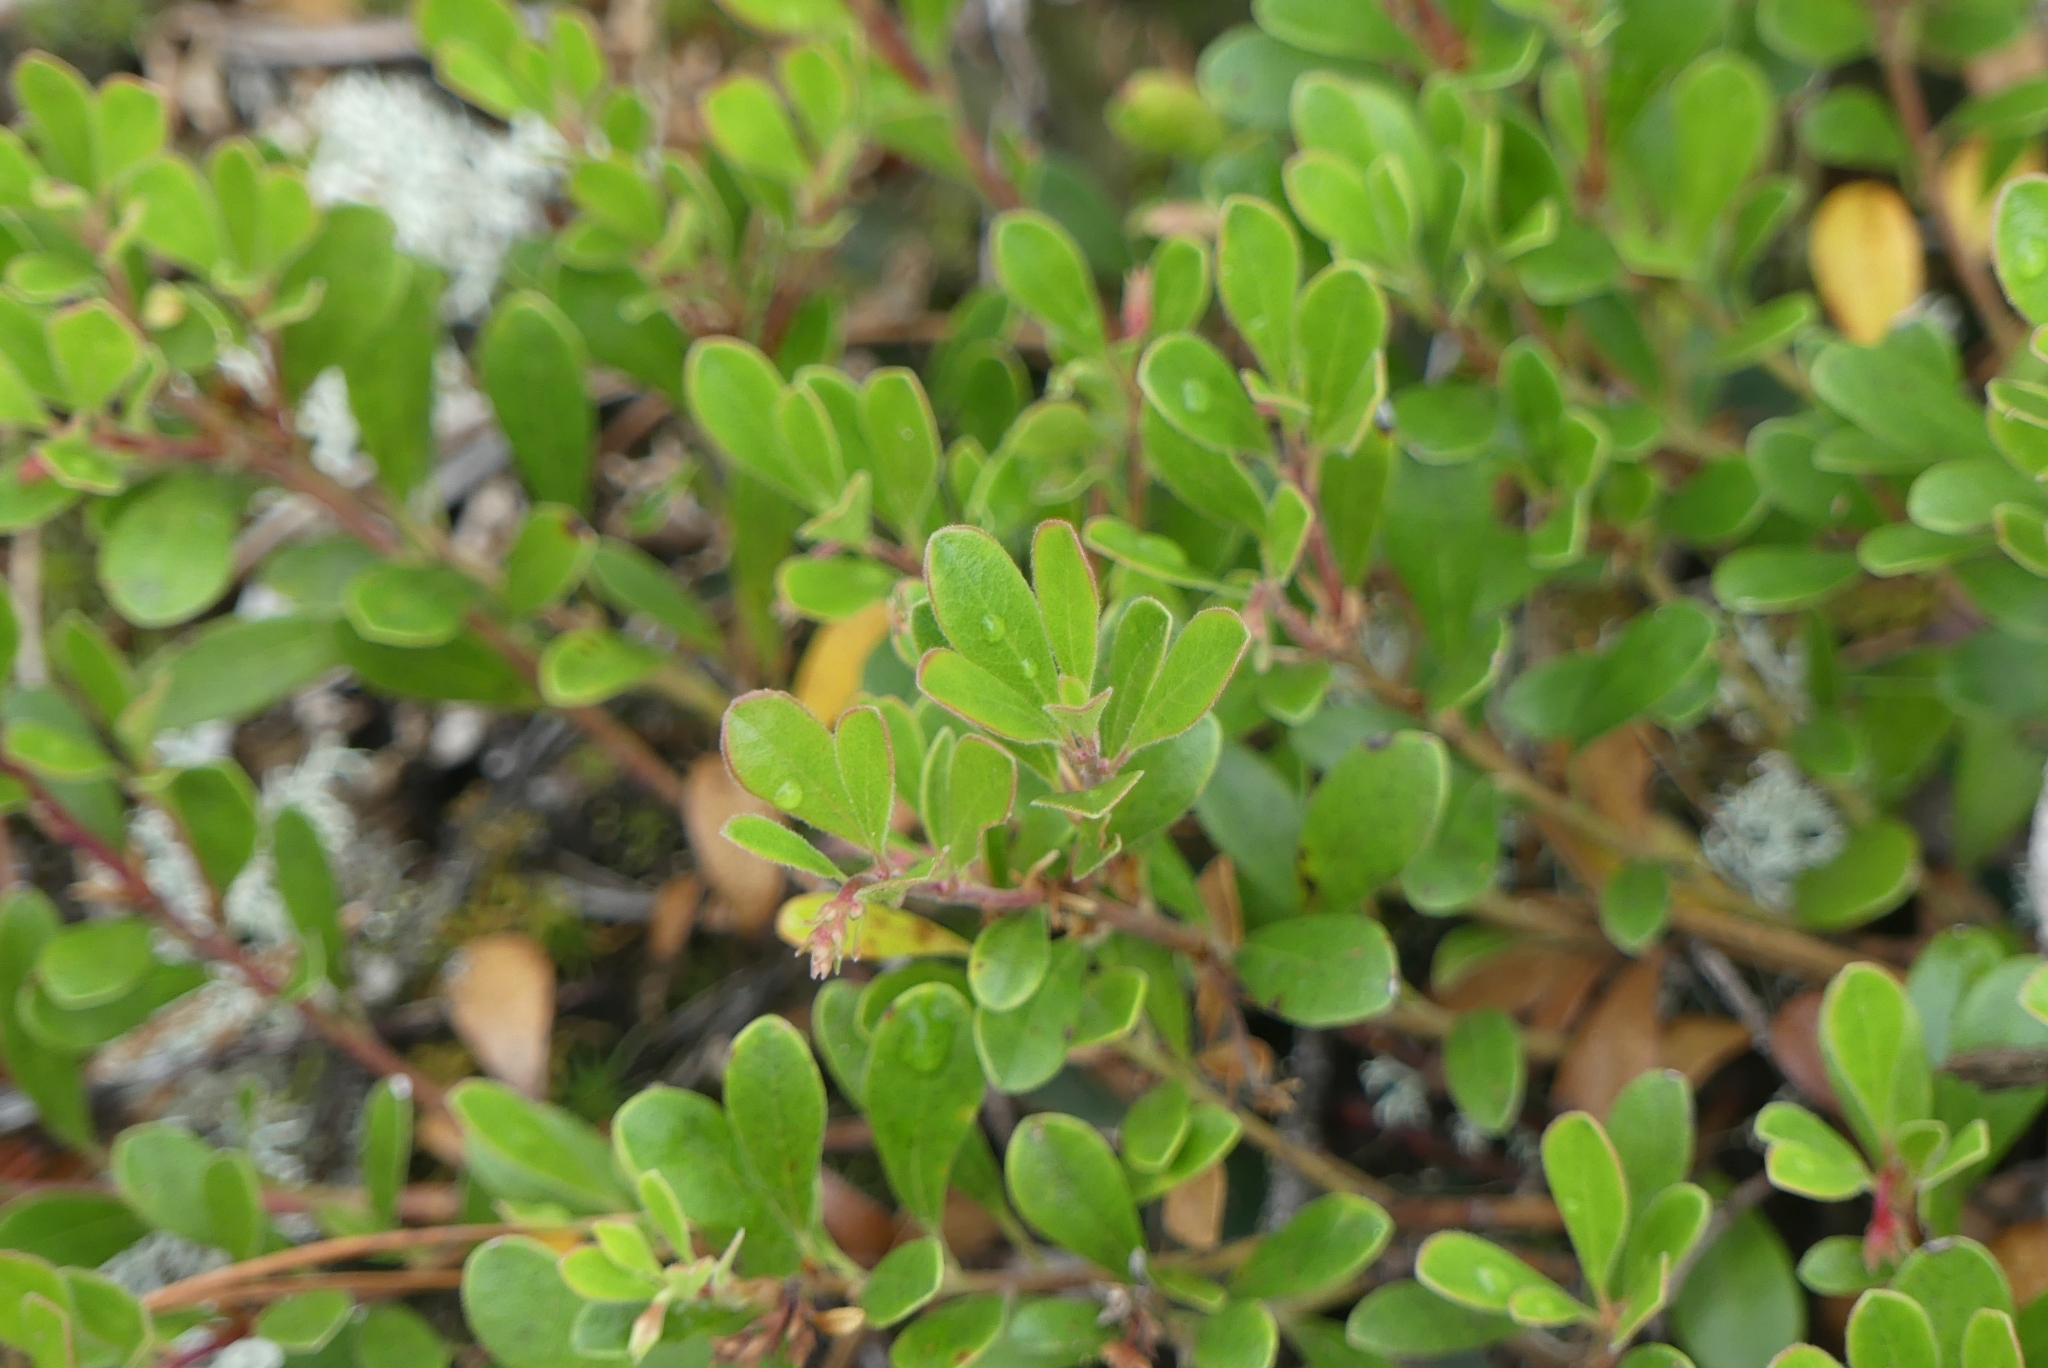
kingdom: Plantae
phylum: Tracheophyta
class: Magnoliopsida
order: Ericales
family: Ericaceae
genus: Arctostaphylos
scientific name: Arctostaphylos uva-ursi
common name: Bearberry
